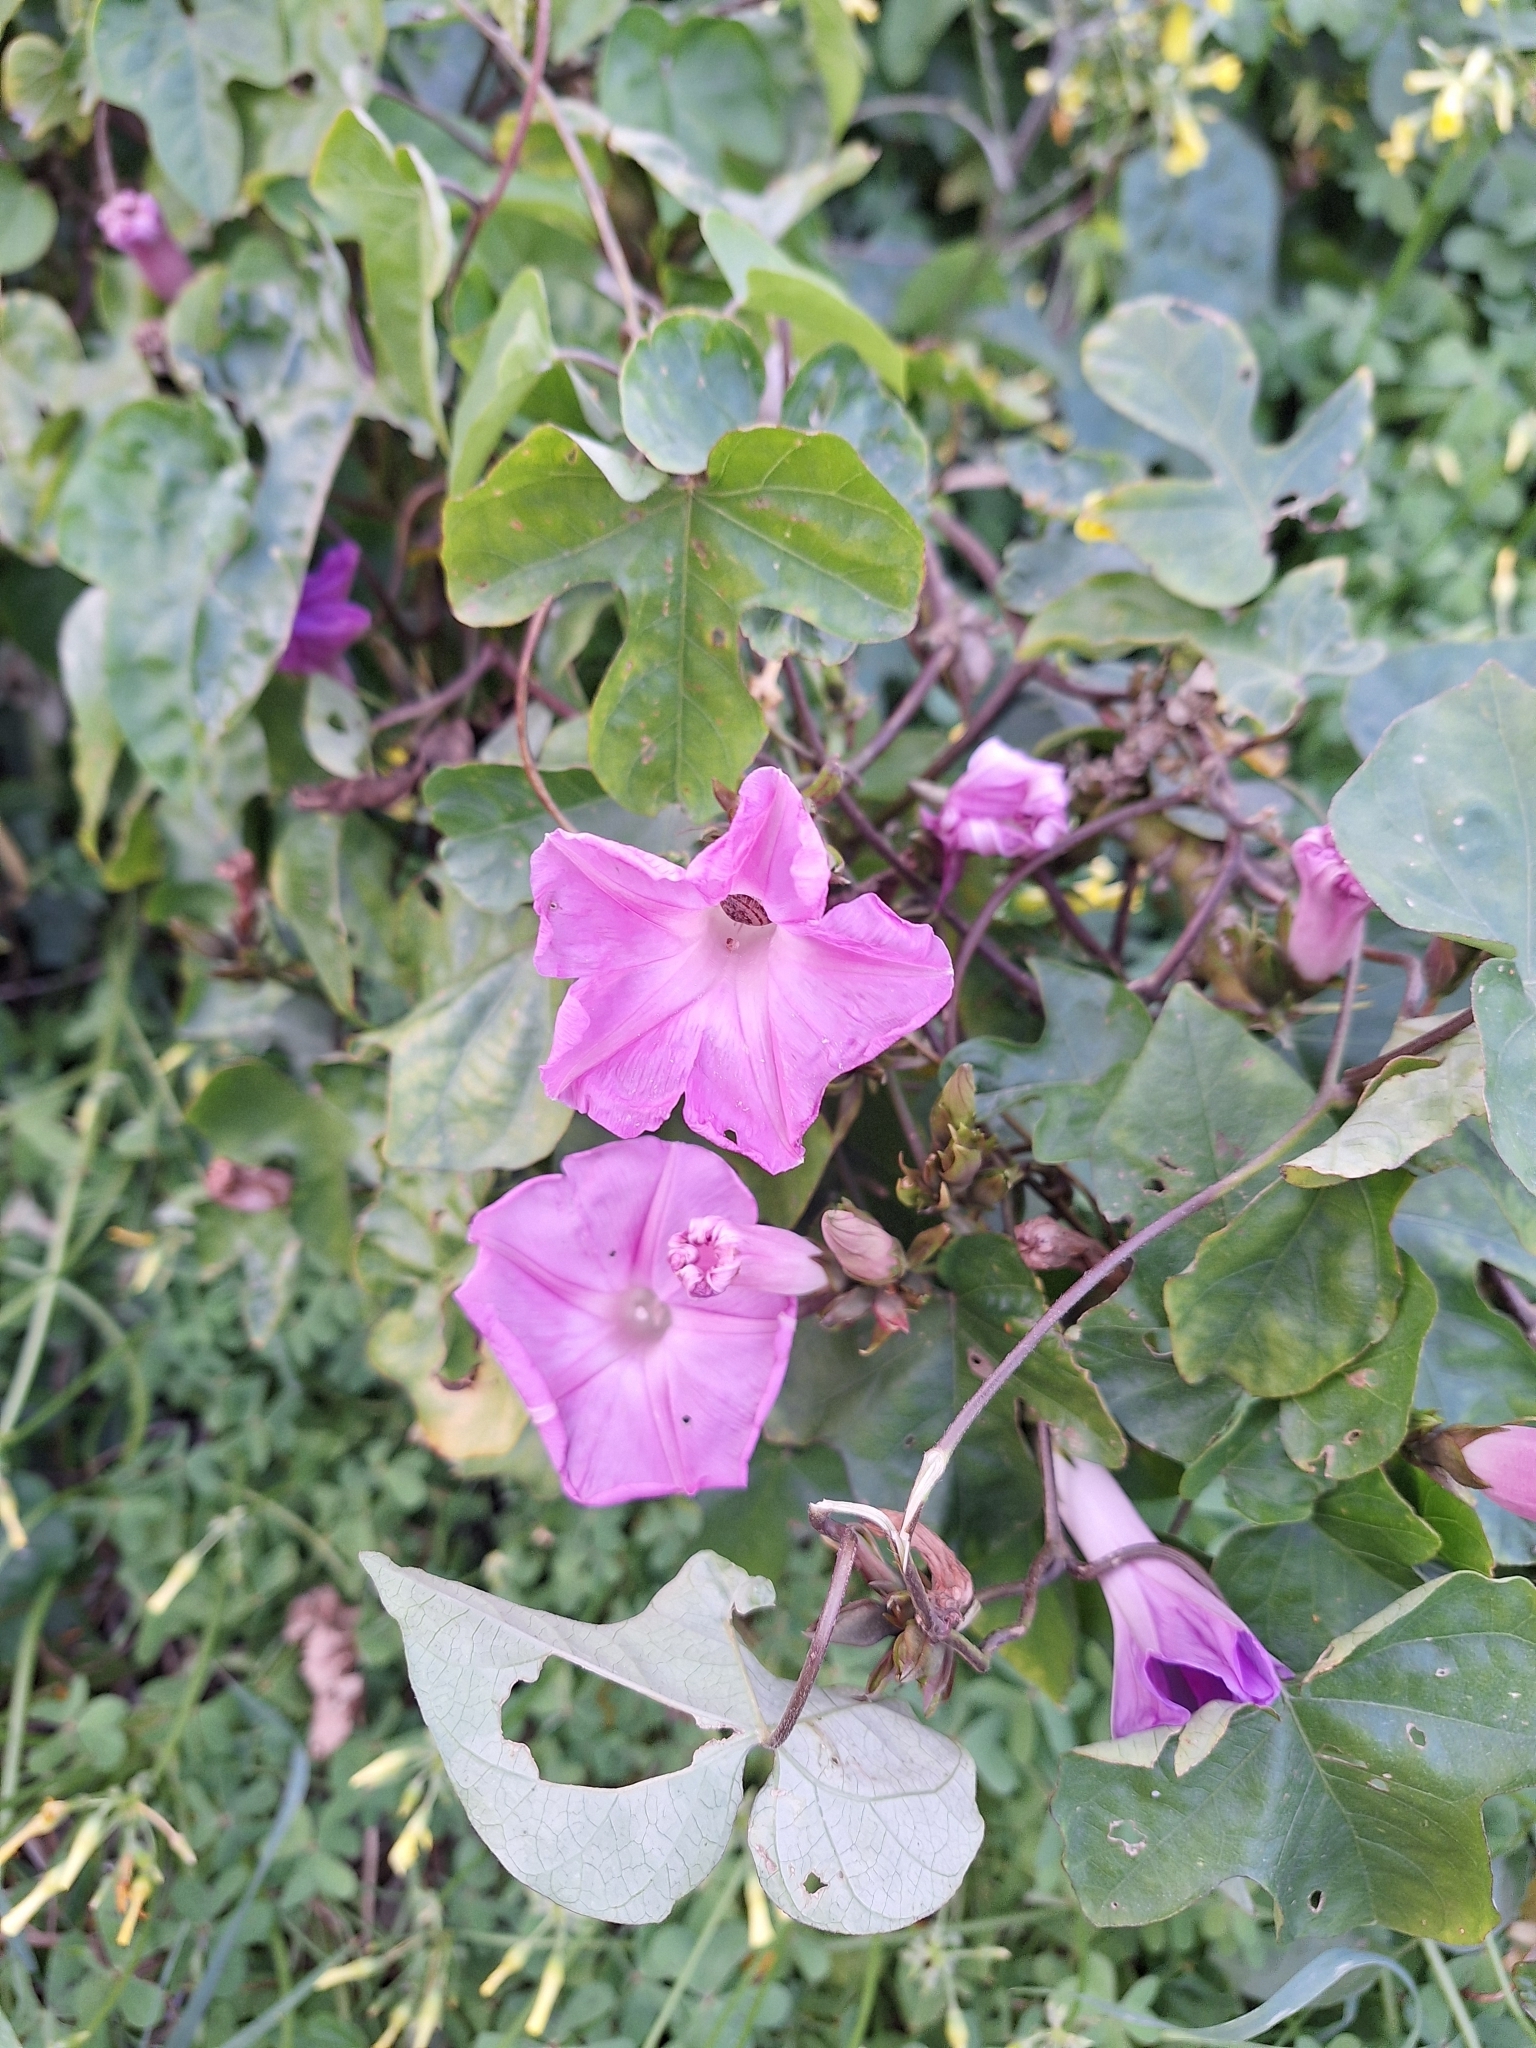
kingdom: Plantae
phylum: Tracheophyta
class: Magnoliopsida
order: Solanales
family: Convolvulaceae
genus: Ipomoea
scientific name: Ipomoea indica
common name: Blue dawnflower
